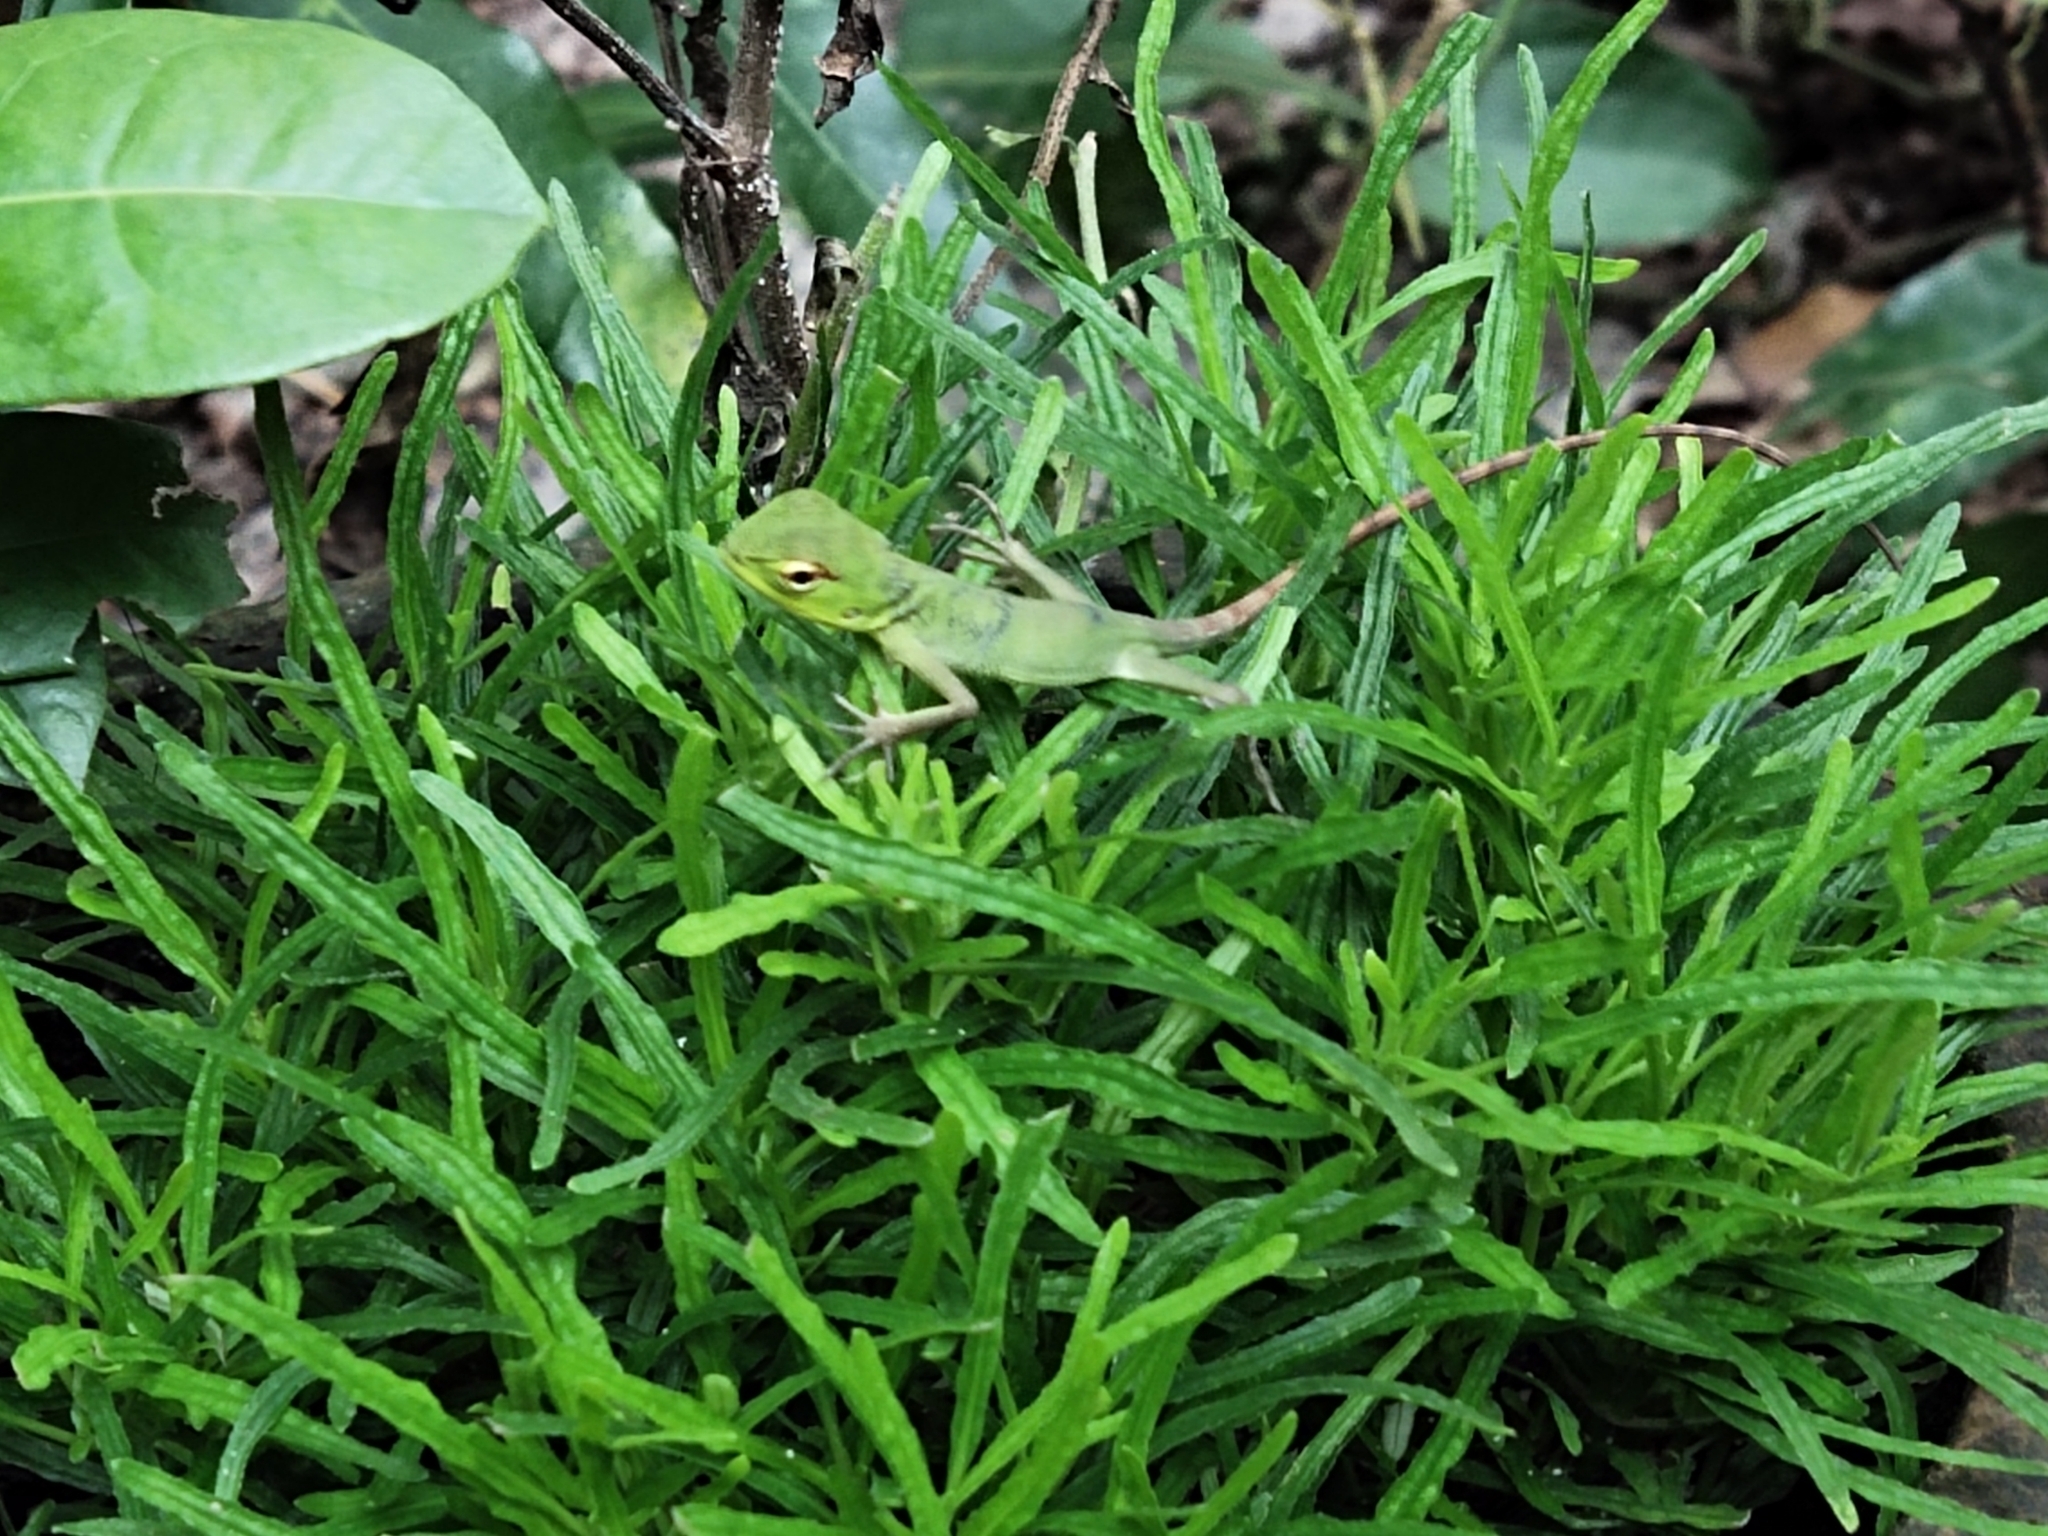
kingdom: Animalia
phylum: Chordata
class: Squamata
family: Agamidae
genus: Calotes
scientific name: Calotes calotes
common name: Common green forest lizard
